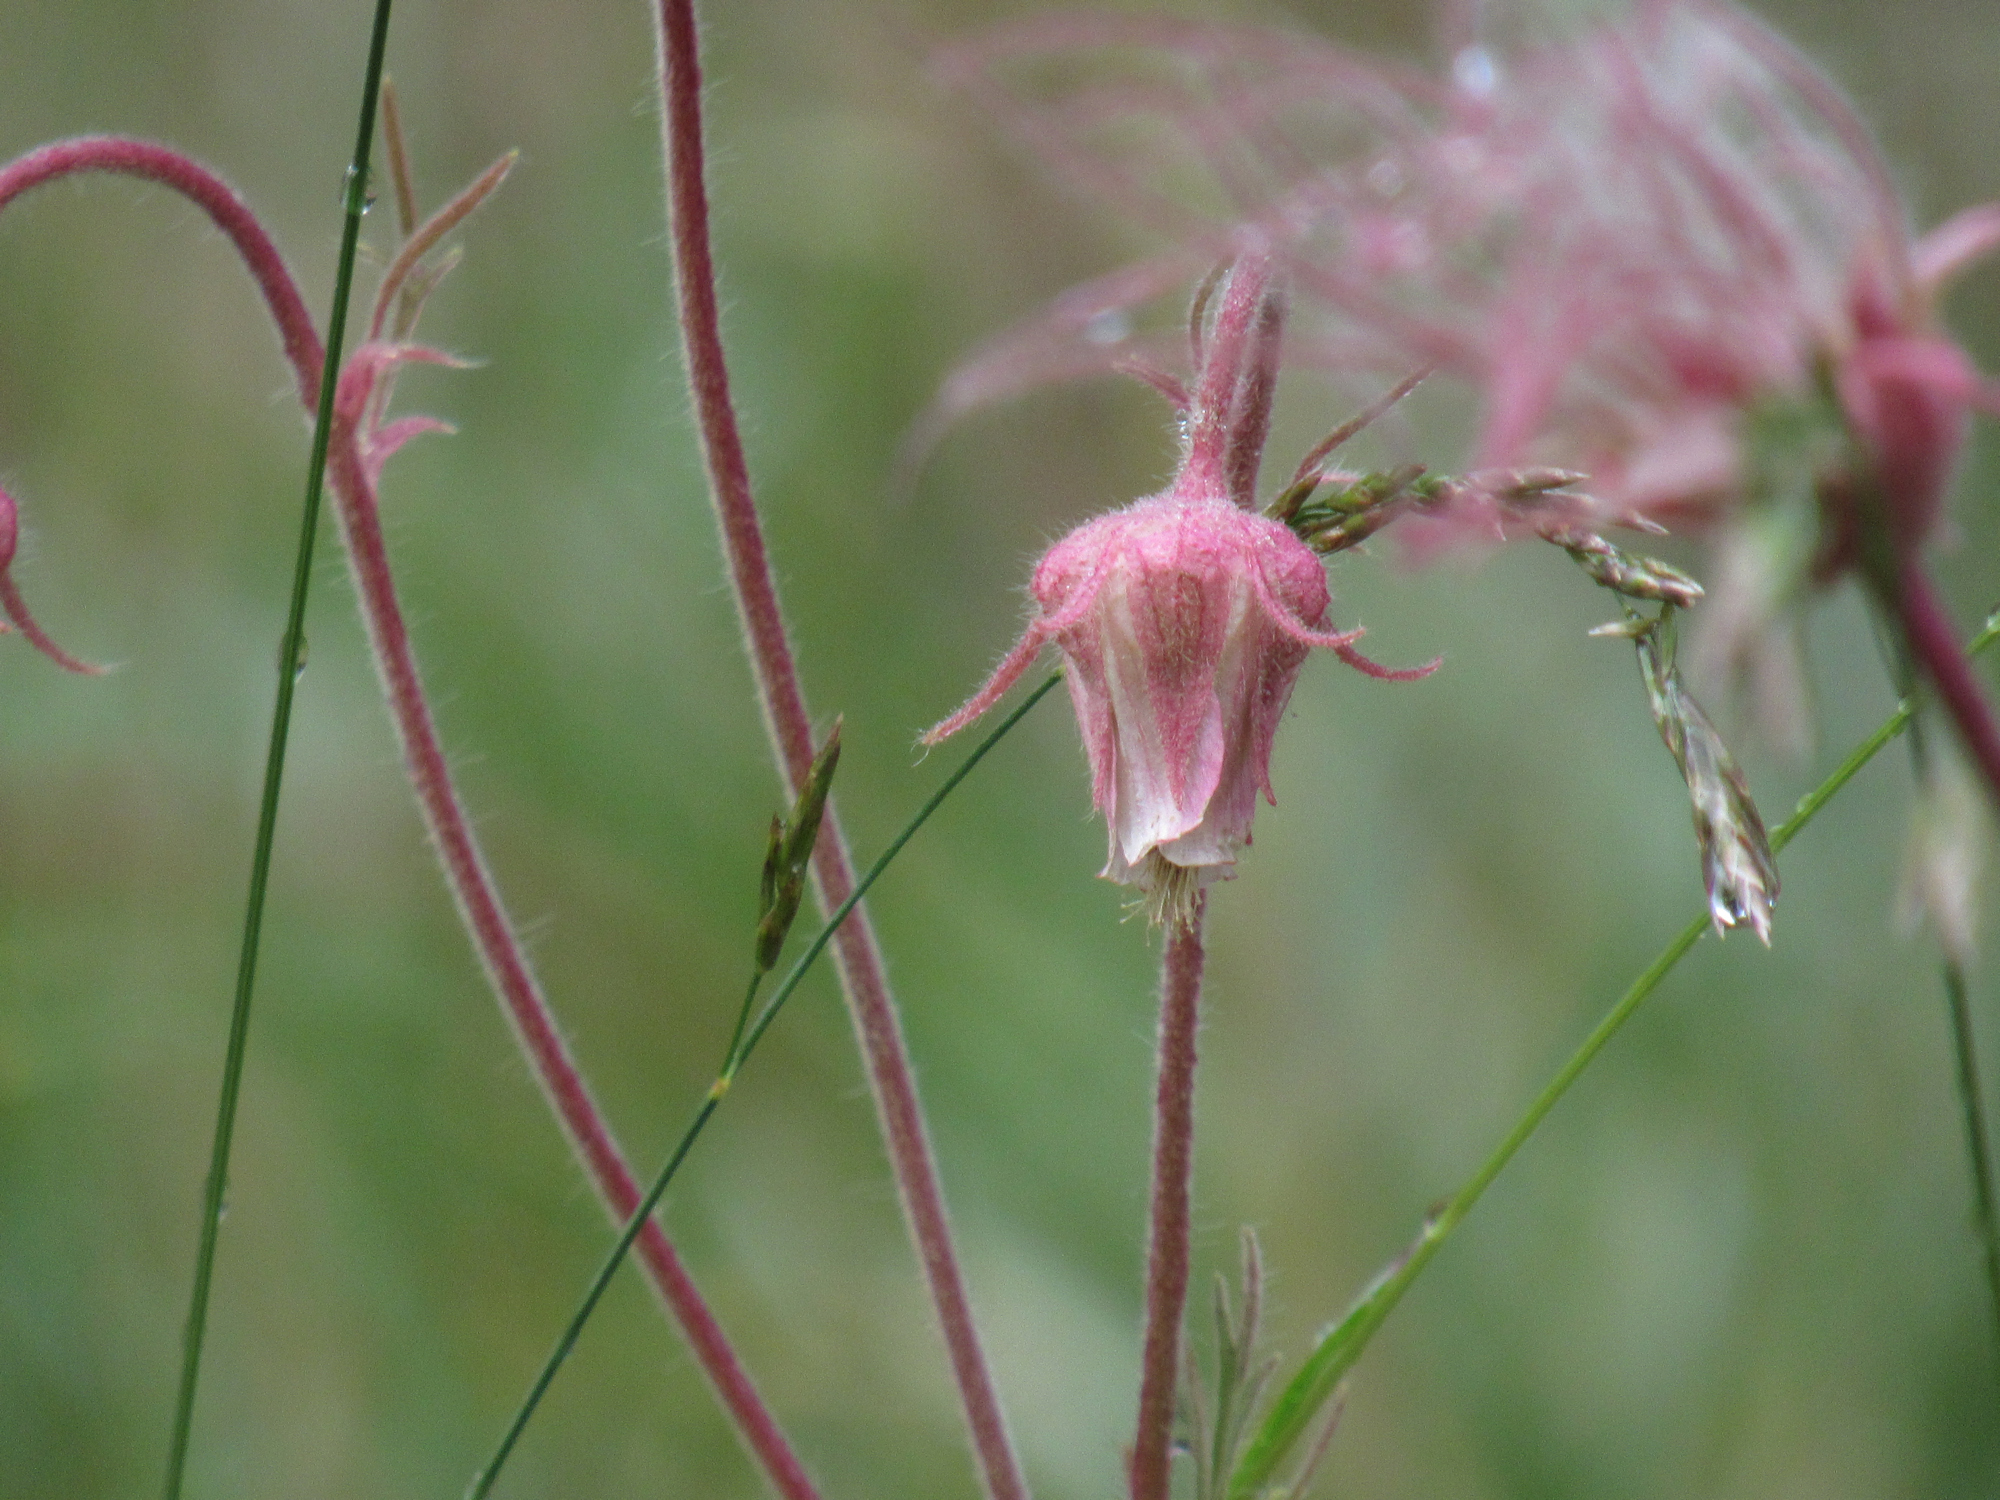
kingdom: Plantae
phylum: Tracheophyta
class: Magnoliopsida
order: Rosales
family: Rosaceae
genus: Geum
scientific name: Geum triflorum
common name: Old man's whiskers
